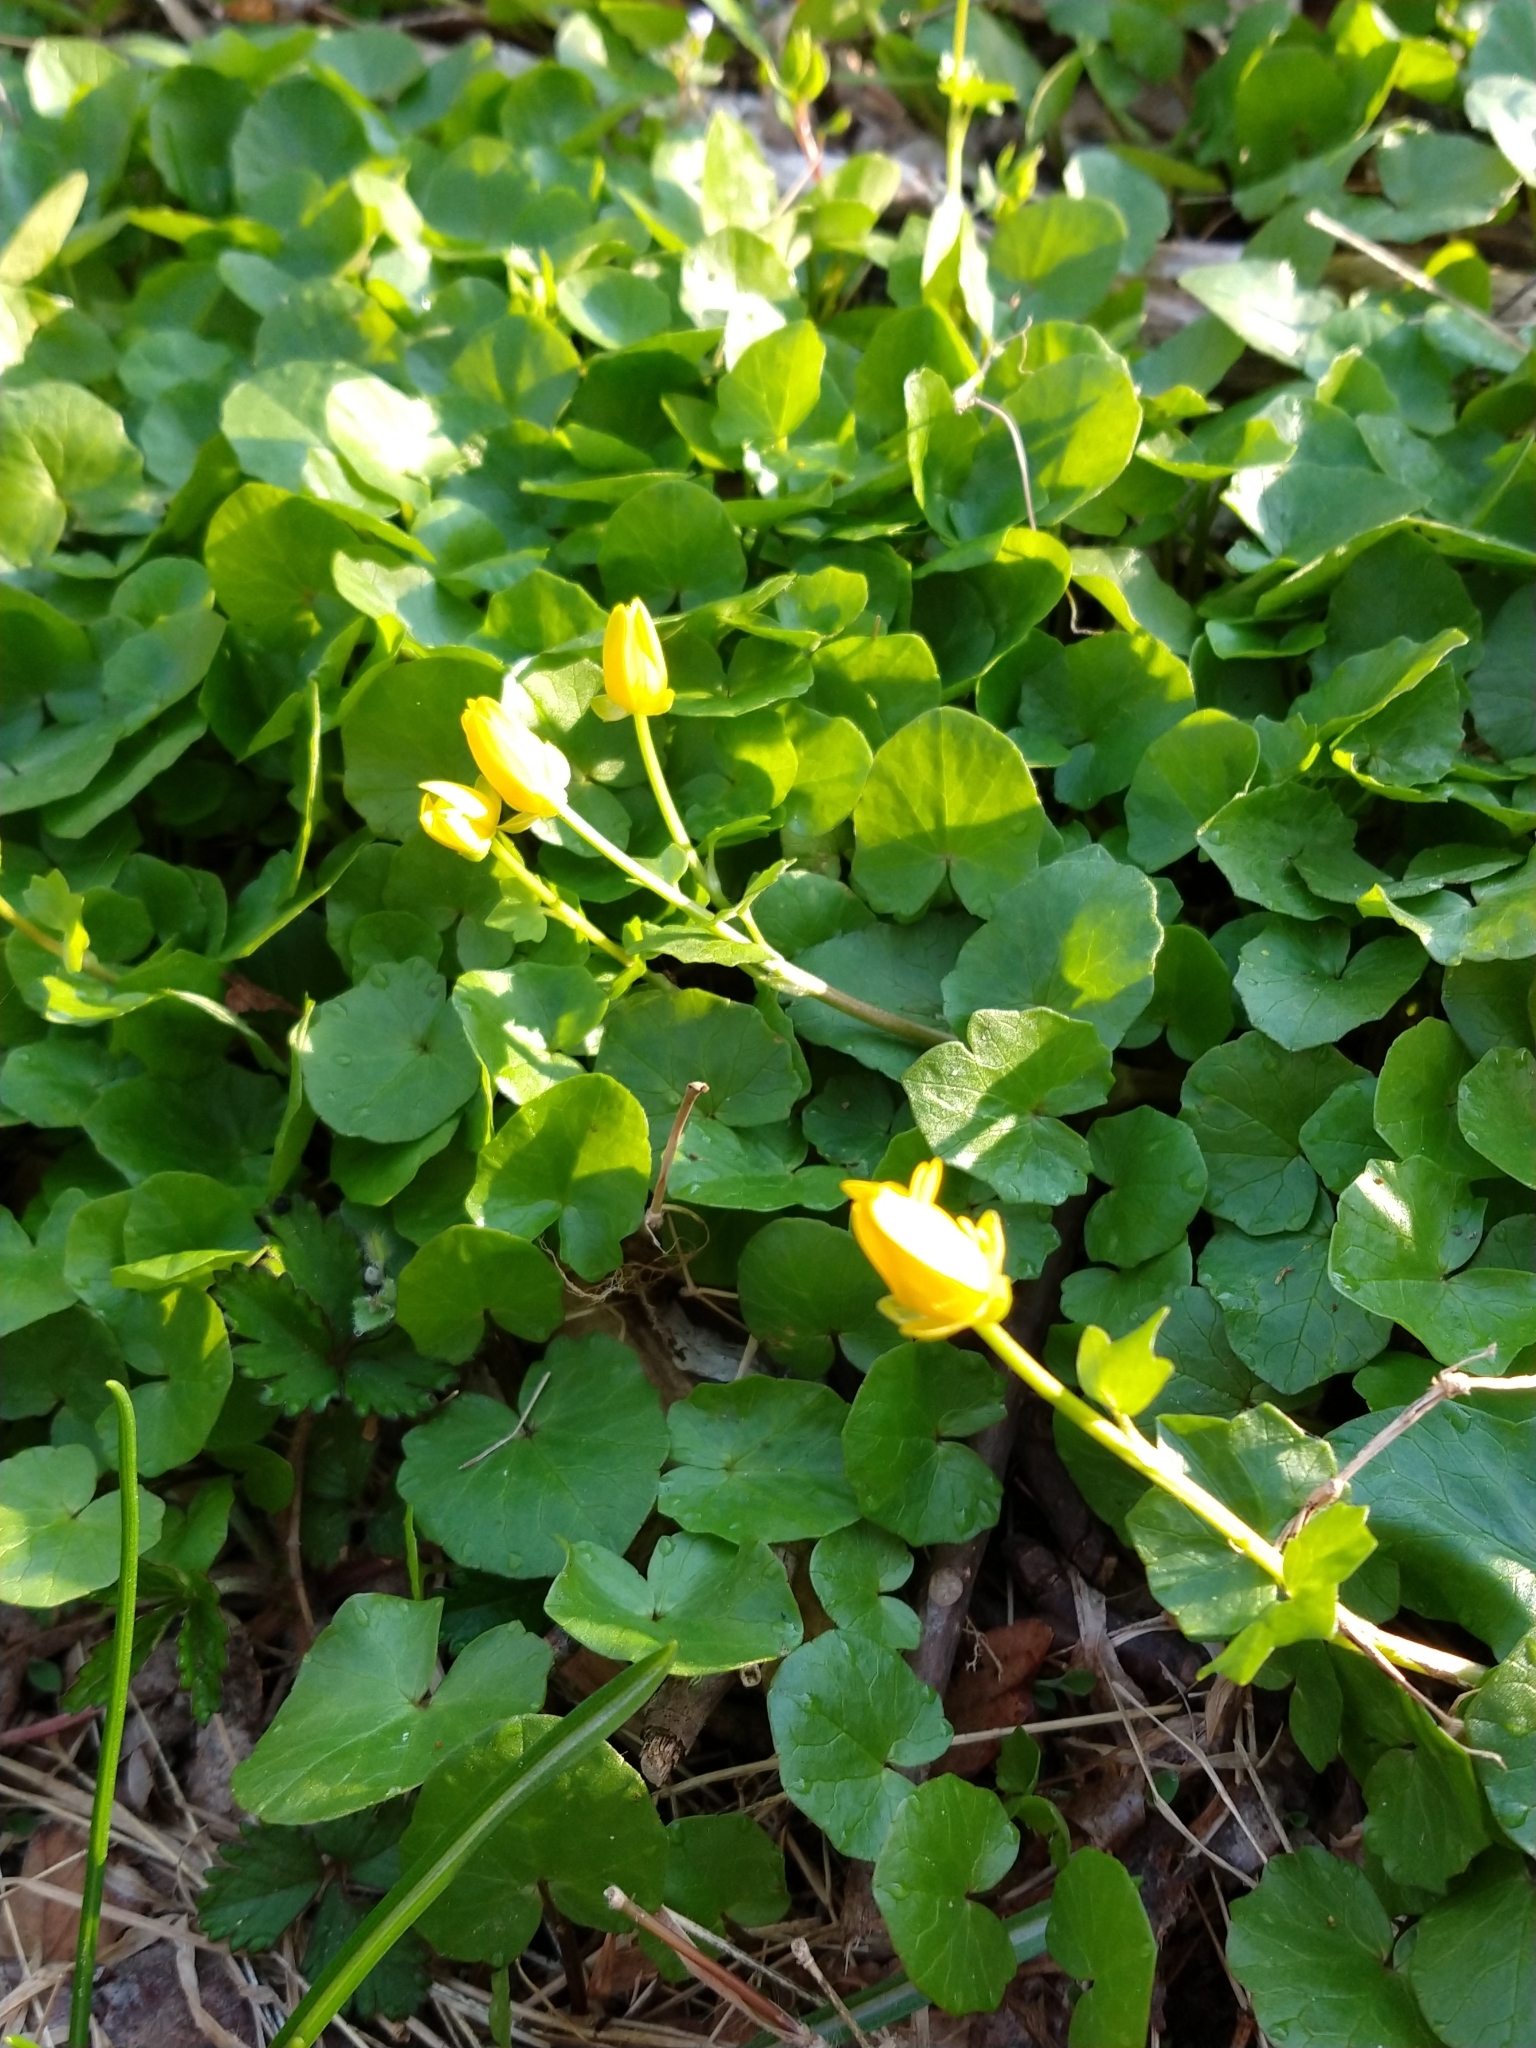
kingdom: Plantae
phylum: Tracheophyta
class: Magnoliopsida
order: Ranunculales
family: Ranunculaceae
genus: Ficaria
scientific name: Ficaria verna
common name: Lesser celandine
